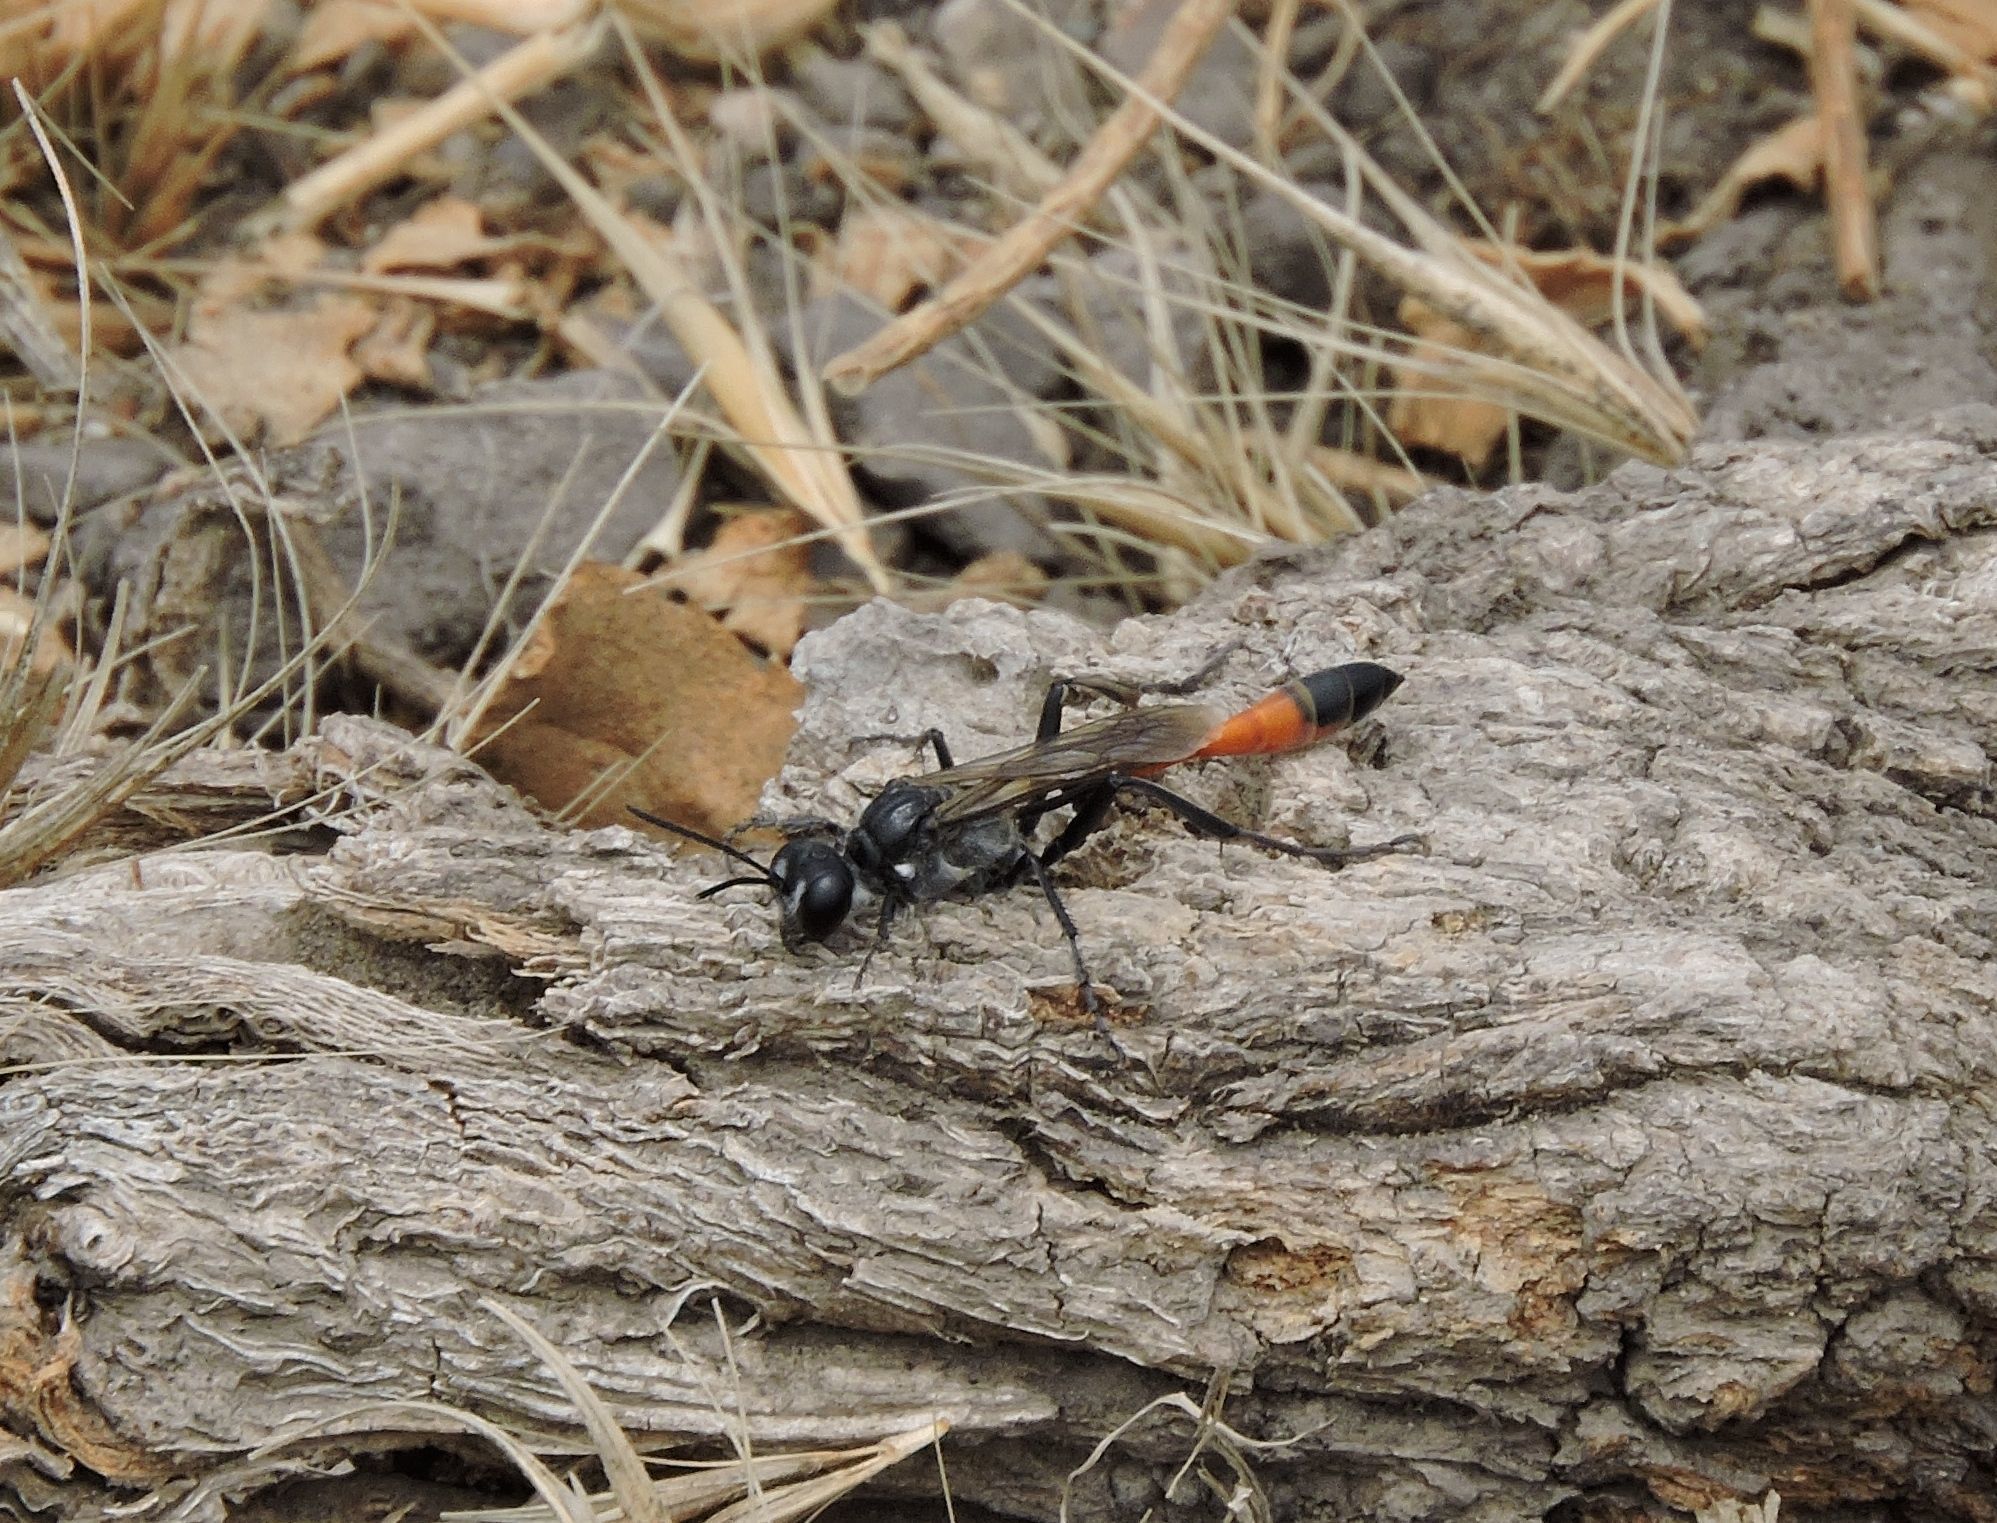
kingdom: Animalia
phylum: Arthropoda
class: Insecta
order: Hymenoptera
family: Sphecidae
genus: Ammophila
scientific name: Ammophila
